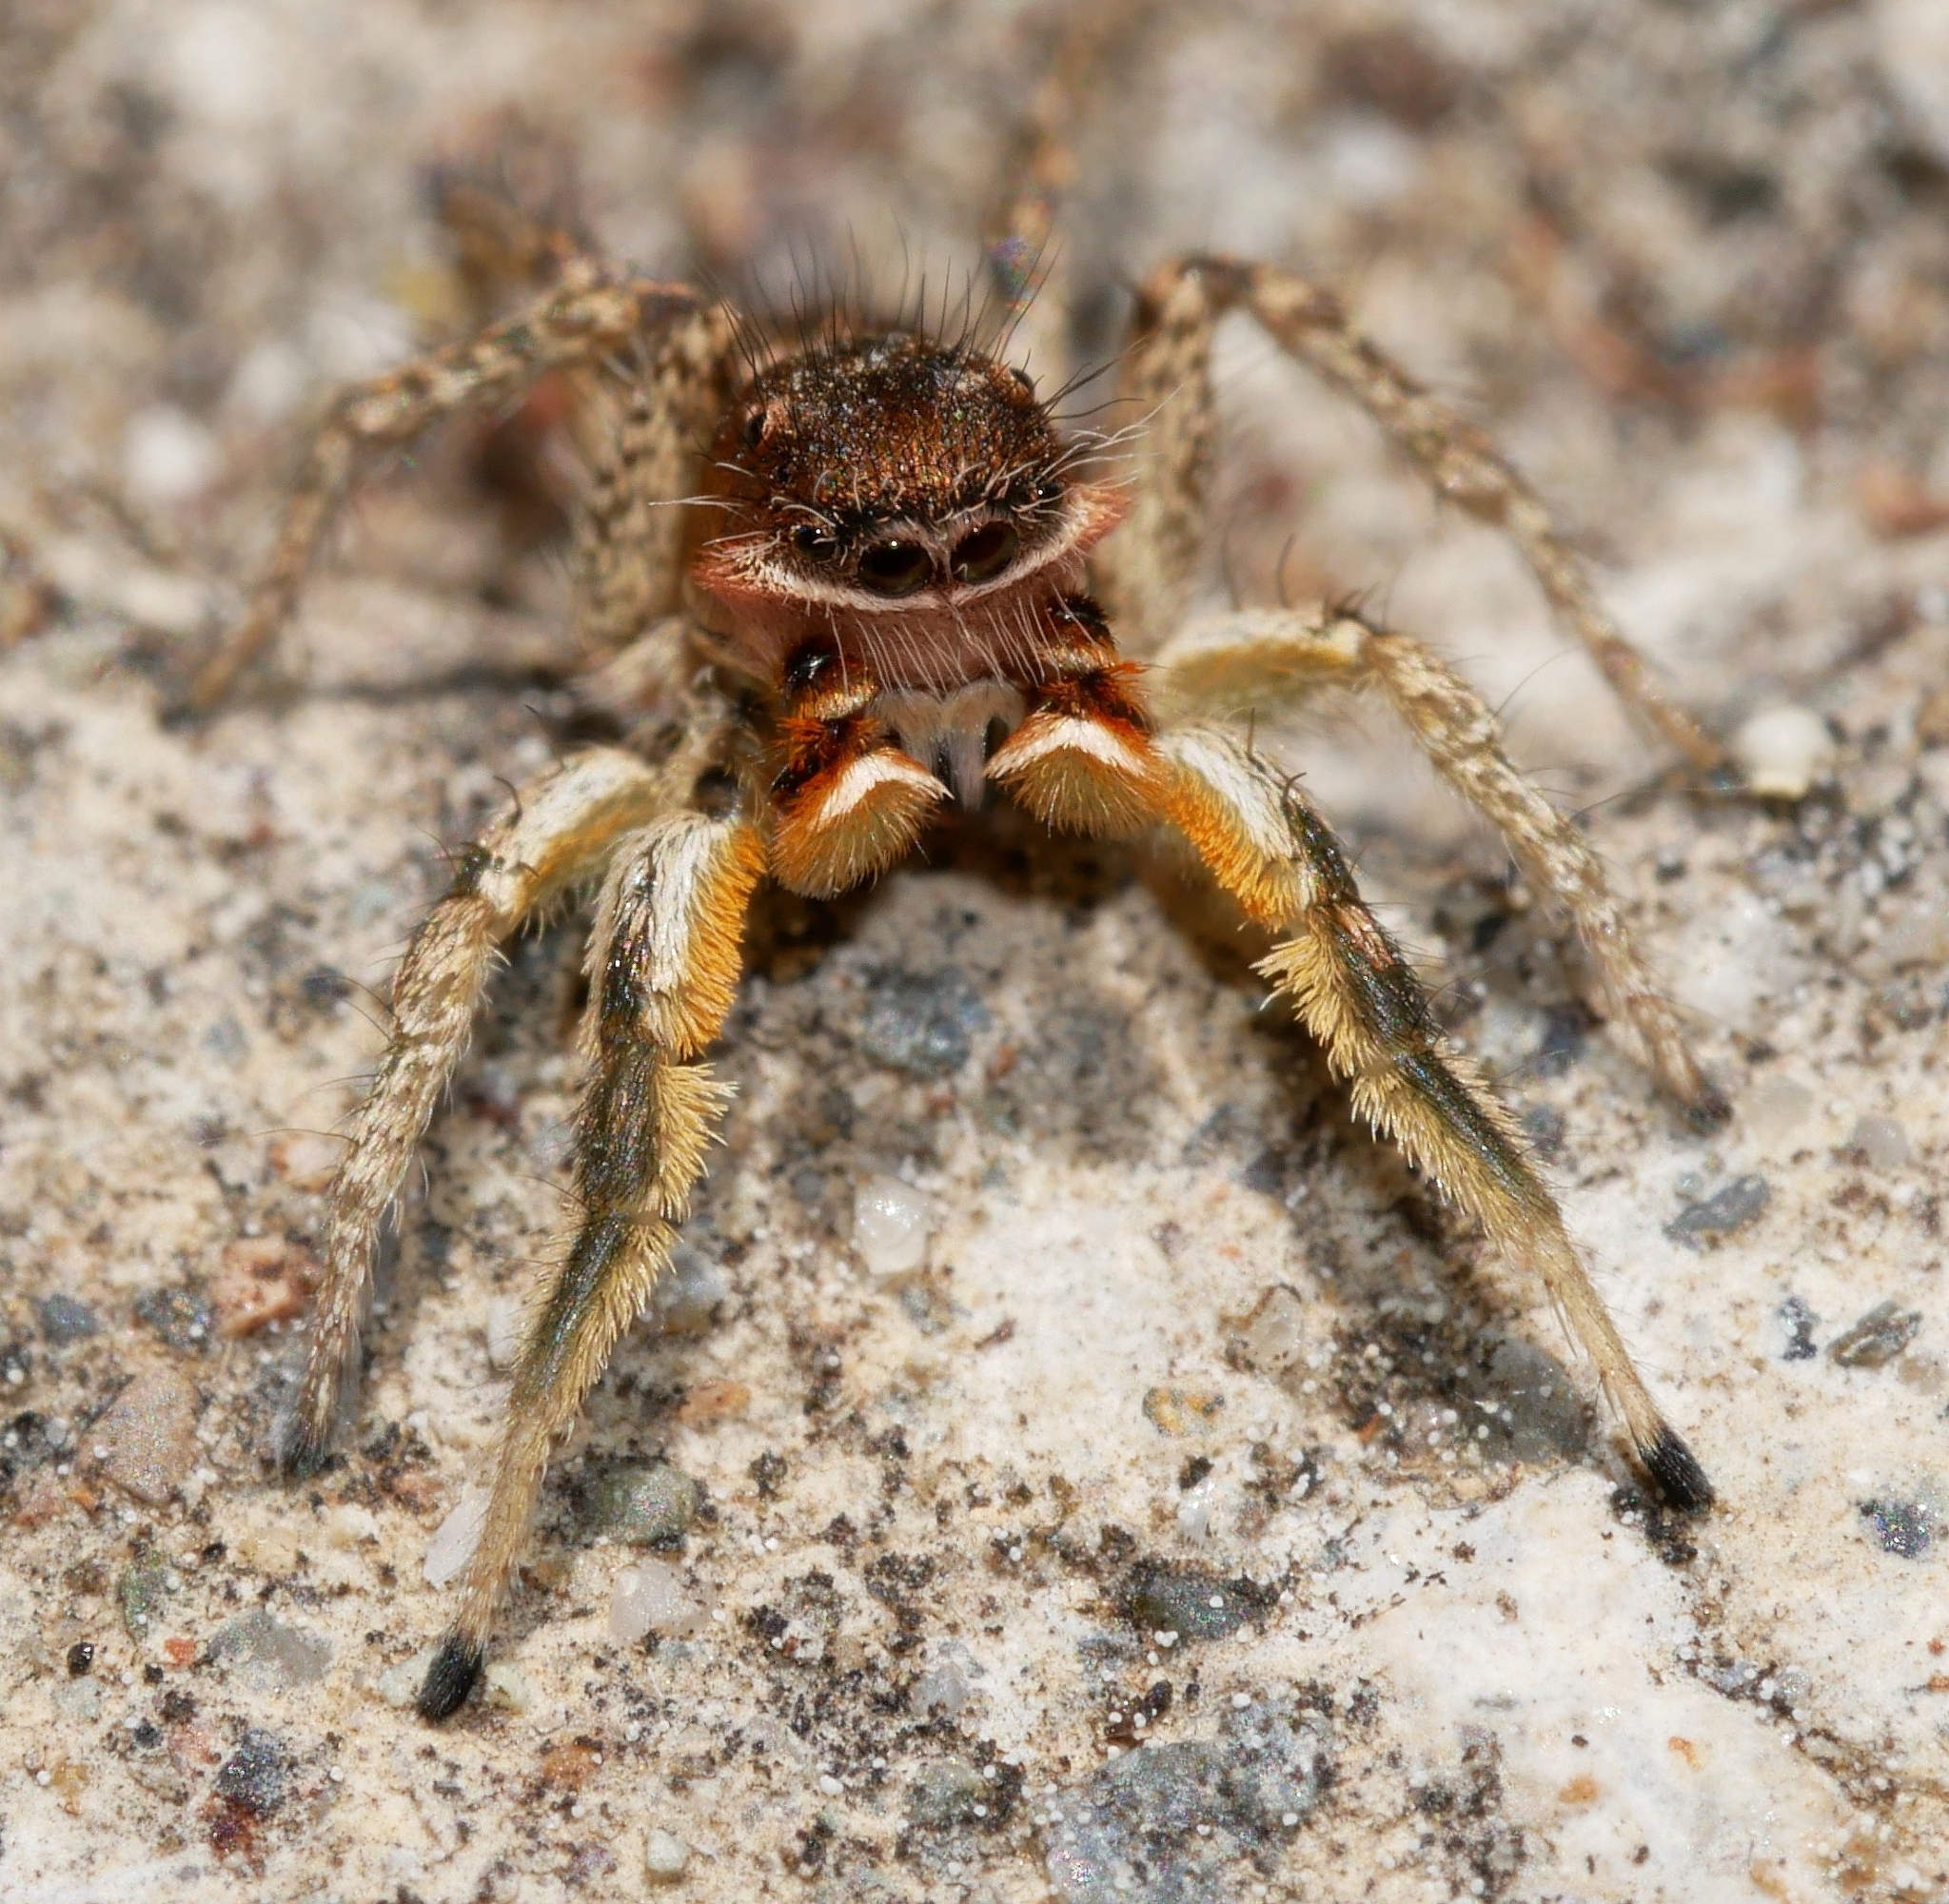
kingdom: Animalia
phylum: Arthropoda
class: Arachnida
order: Araneae
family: Salticidae
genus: Habronattus
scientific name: Habronattus mustaciatus
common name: Jumping spider
